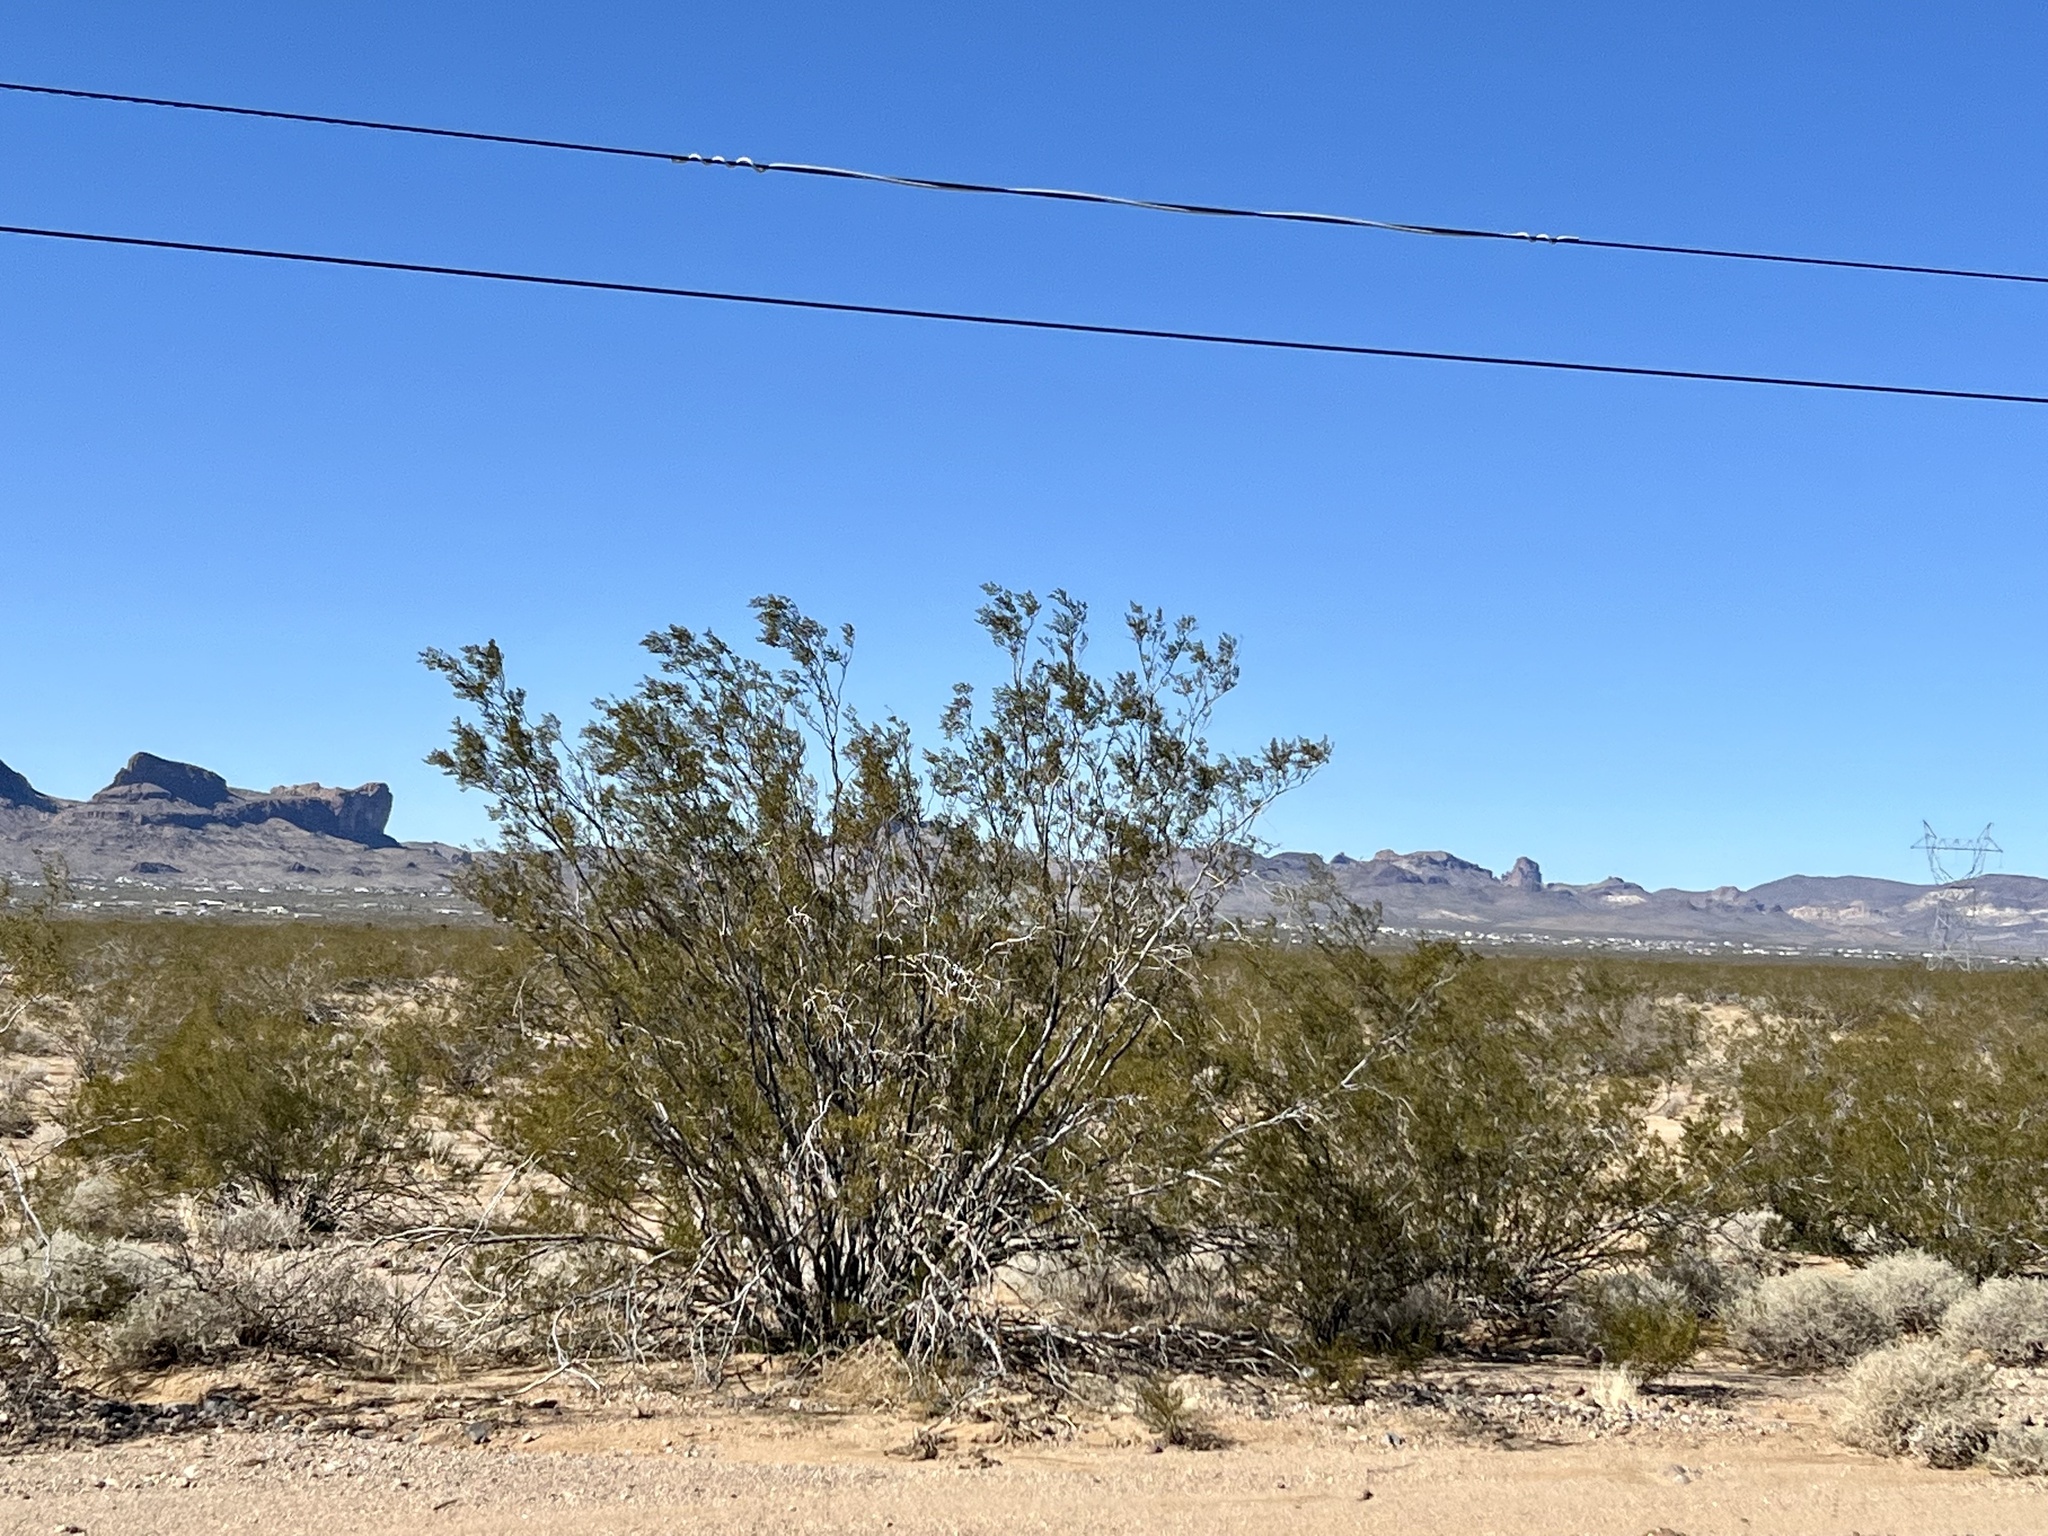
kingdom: Plantae
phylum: Tracheophyta
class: Magnoliopsida
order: Zygophyllales
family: Zygophyllaceae
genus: Larrea
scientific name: Larrea tridentata
